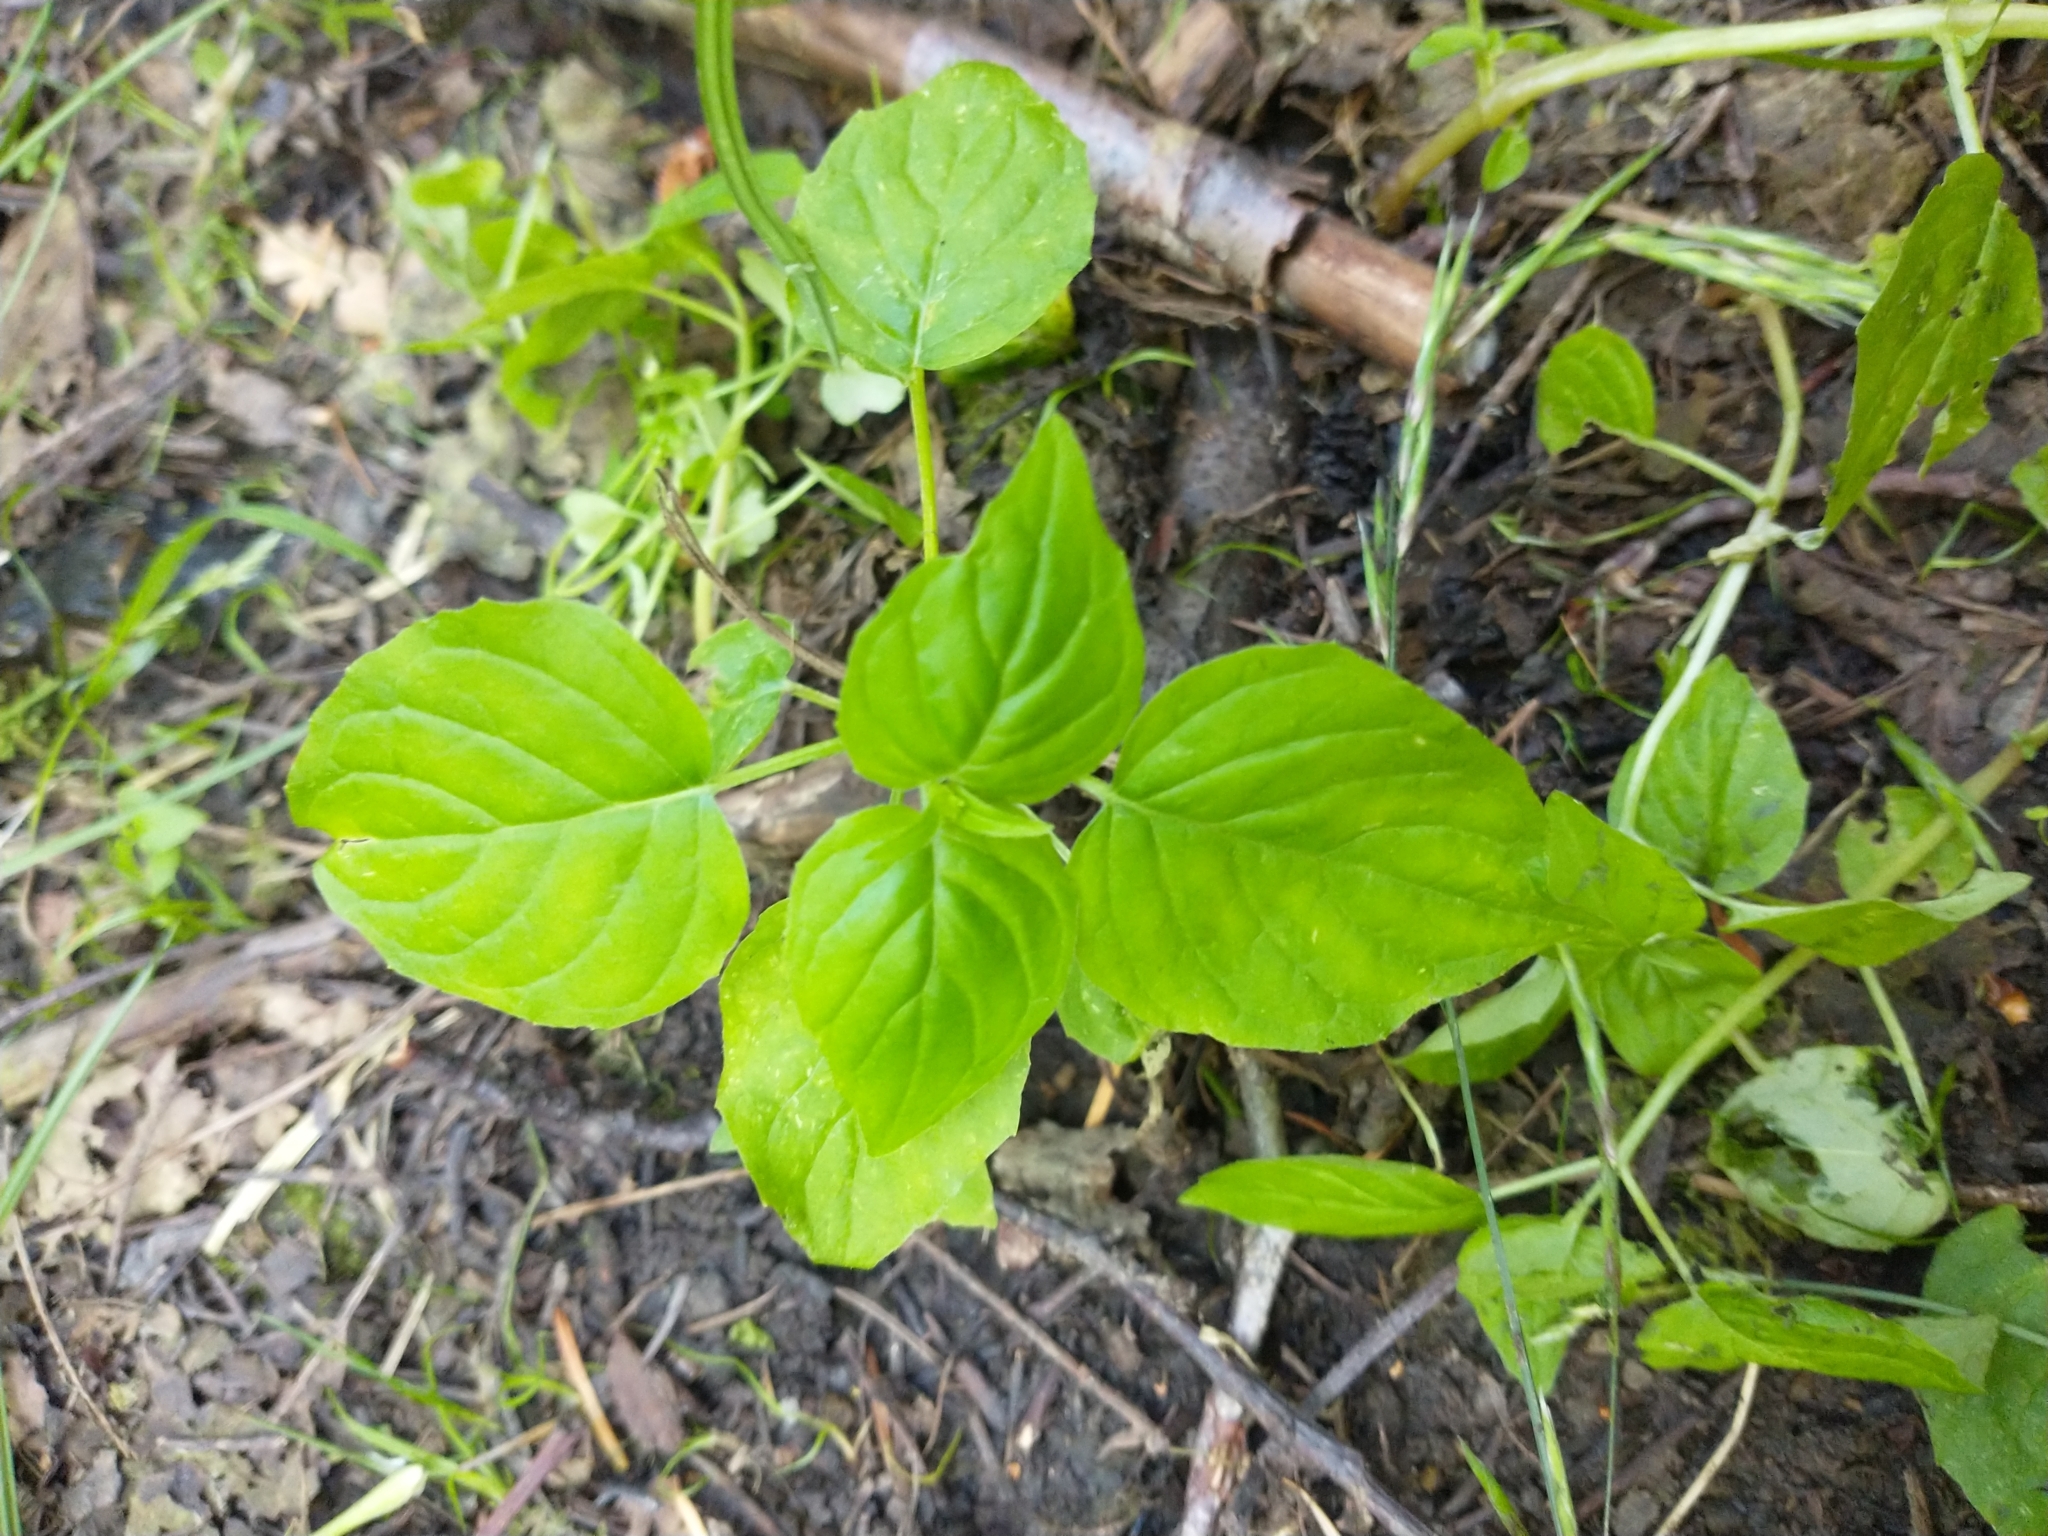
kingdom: Plantae
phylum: Tracheophyta
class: Magnoliopsida
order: Myrtales
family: Onagraceae
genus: Circaea
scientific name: Circaea alpina
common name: Alpine enchanter's-nightshade
